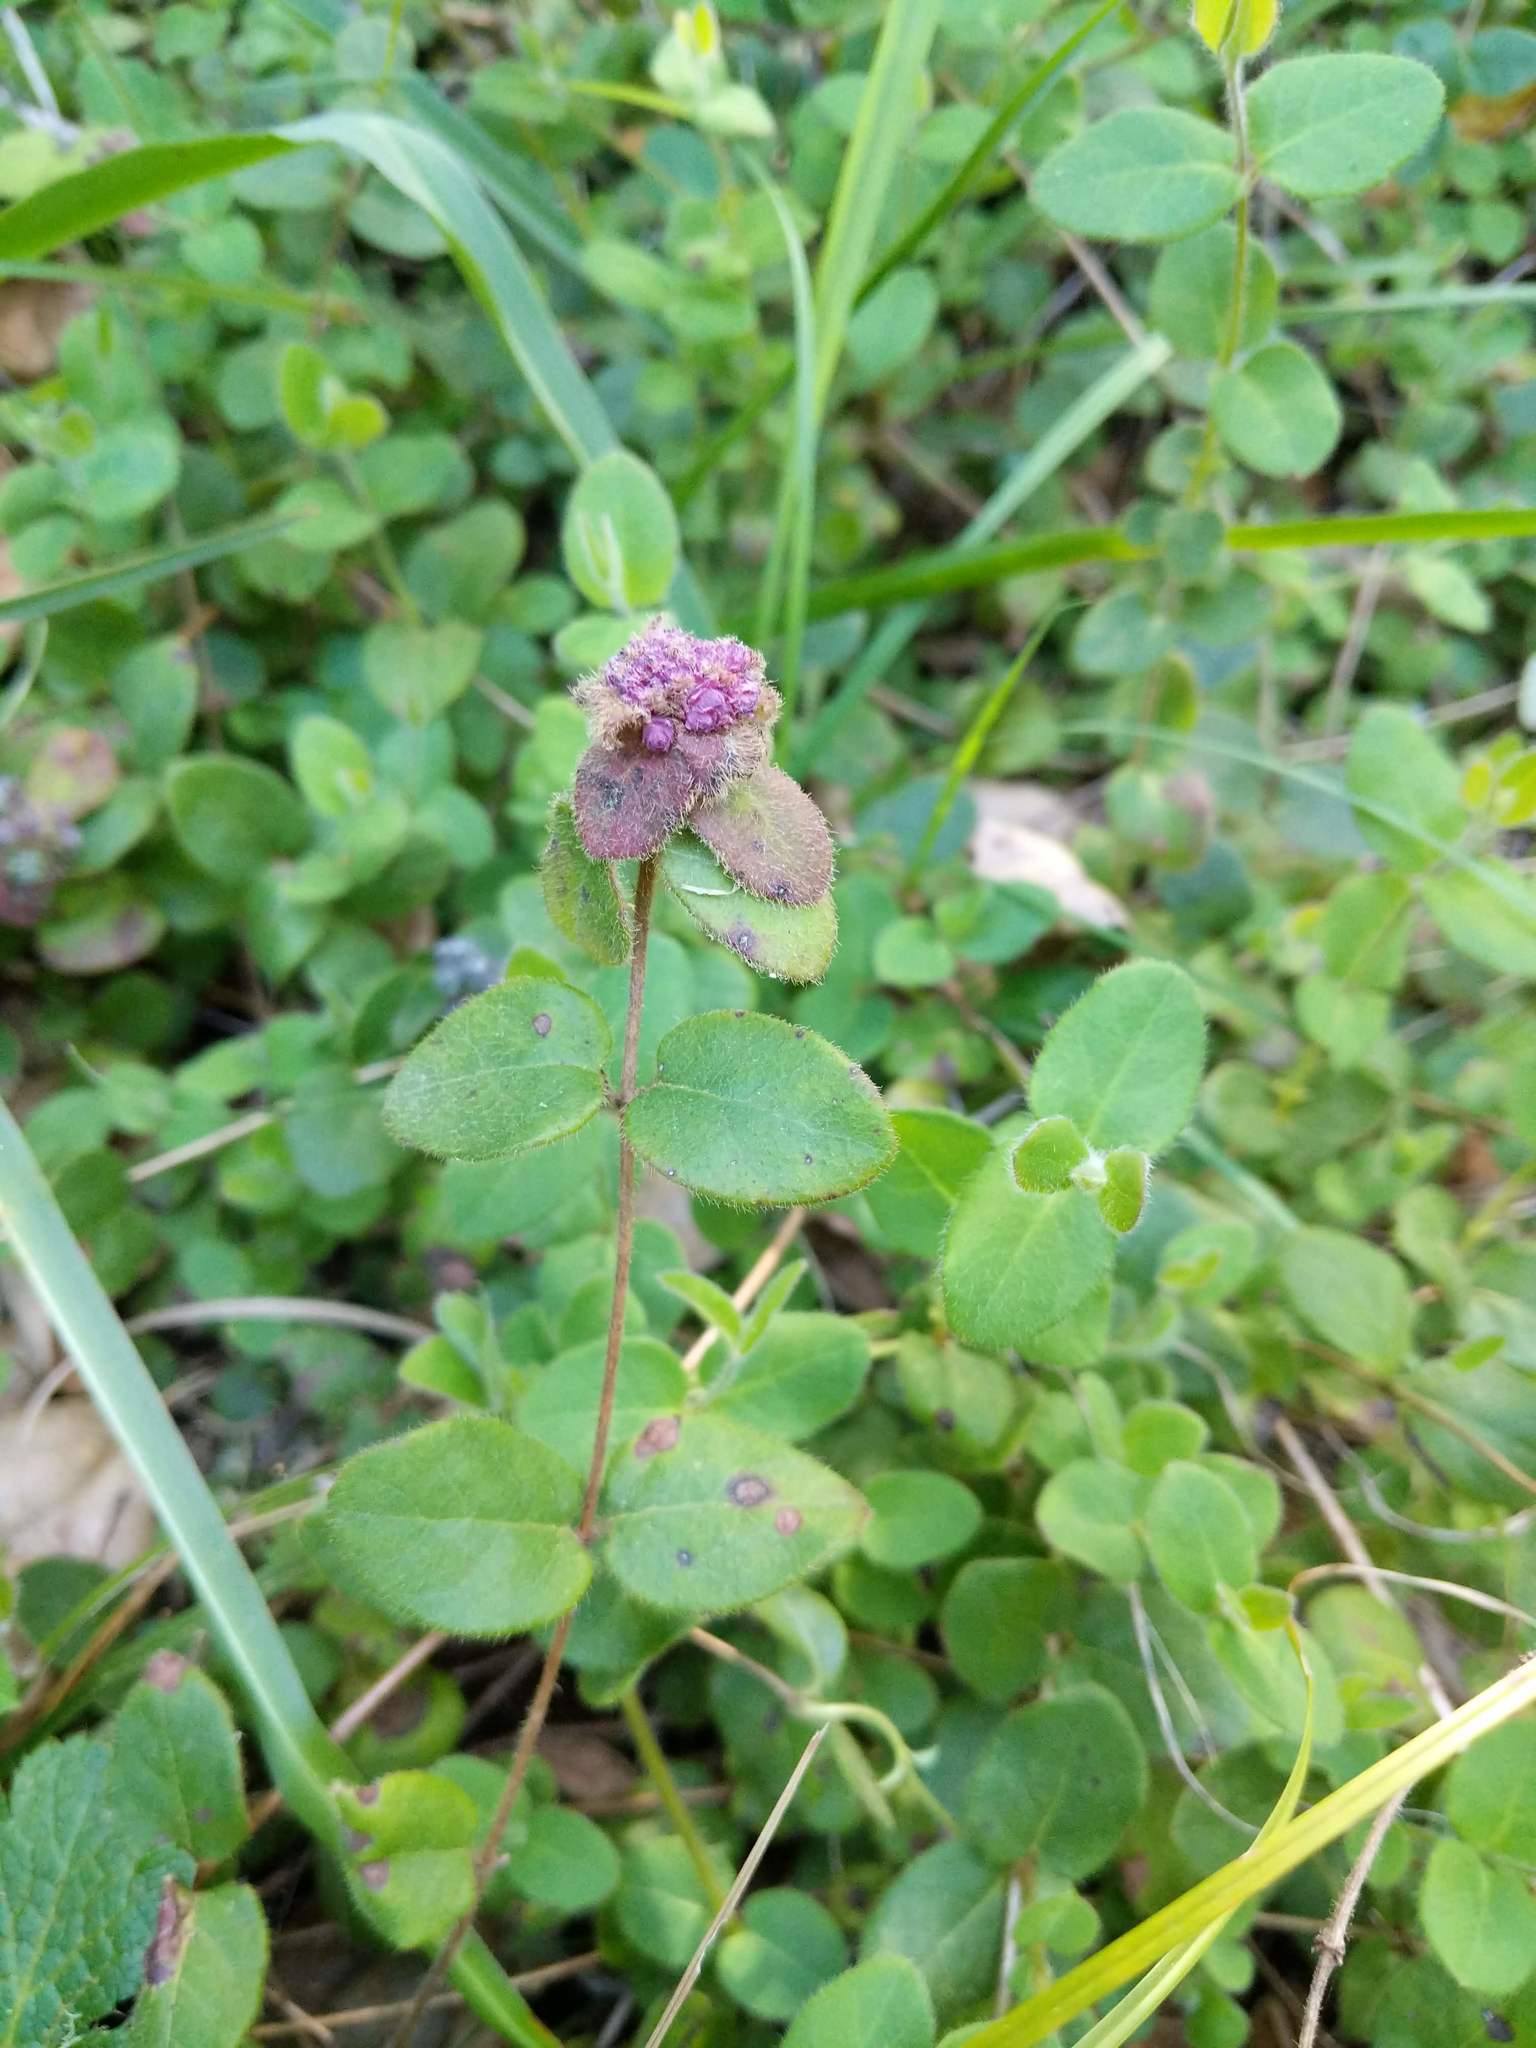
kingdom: Plantae
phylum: Tracheophyta
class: Magnoliopsida
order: Dipsacales
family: Caprifoliaceae
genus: Lonicera
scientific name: Lonicera hispidula
